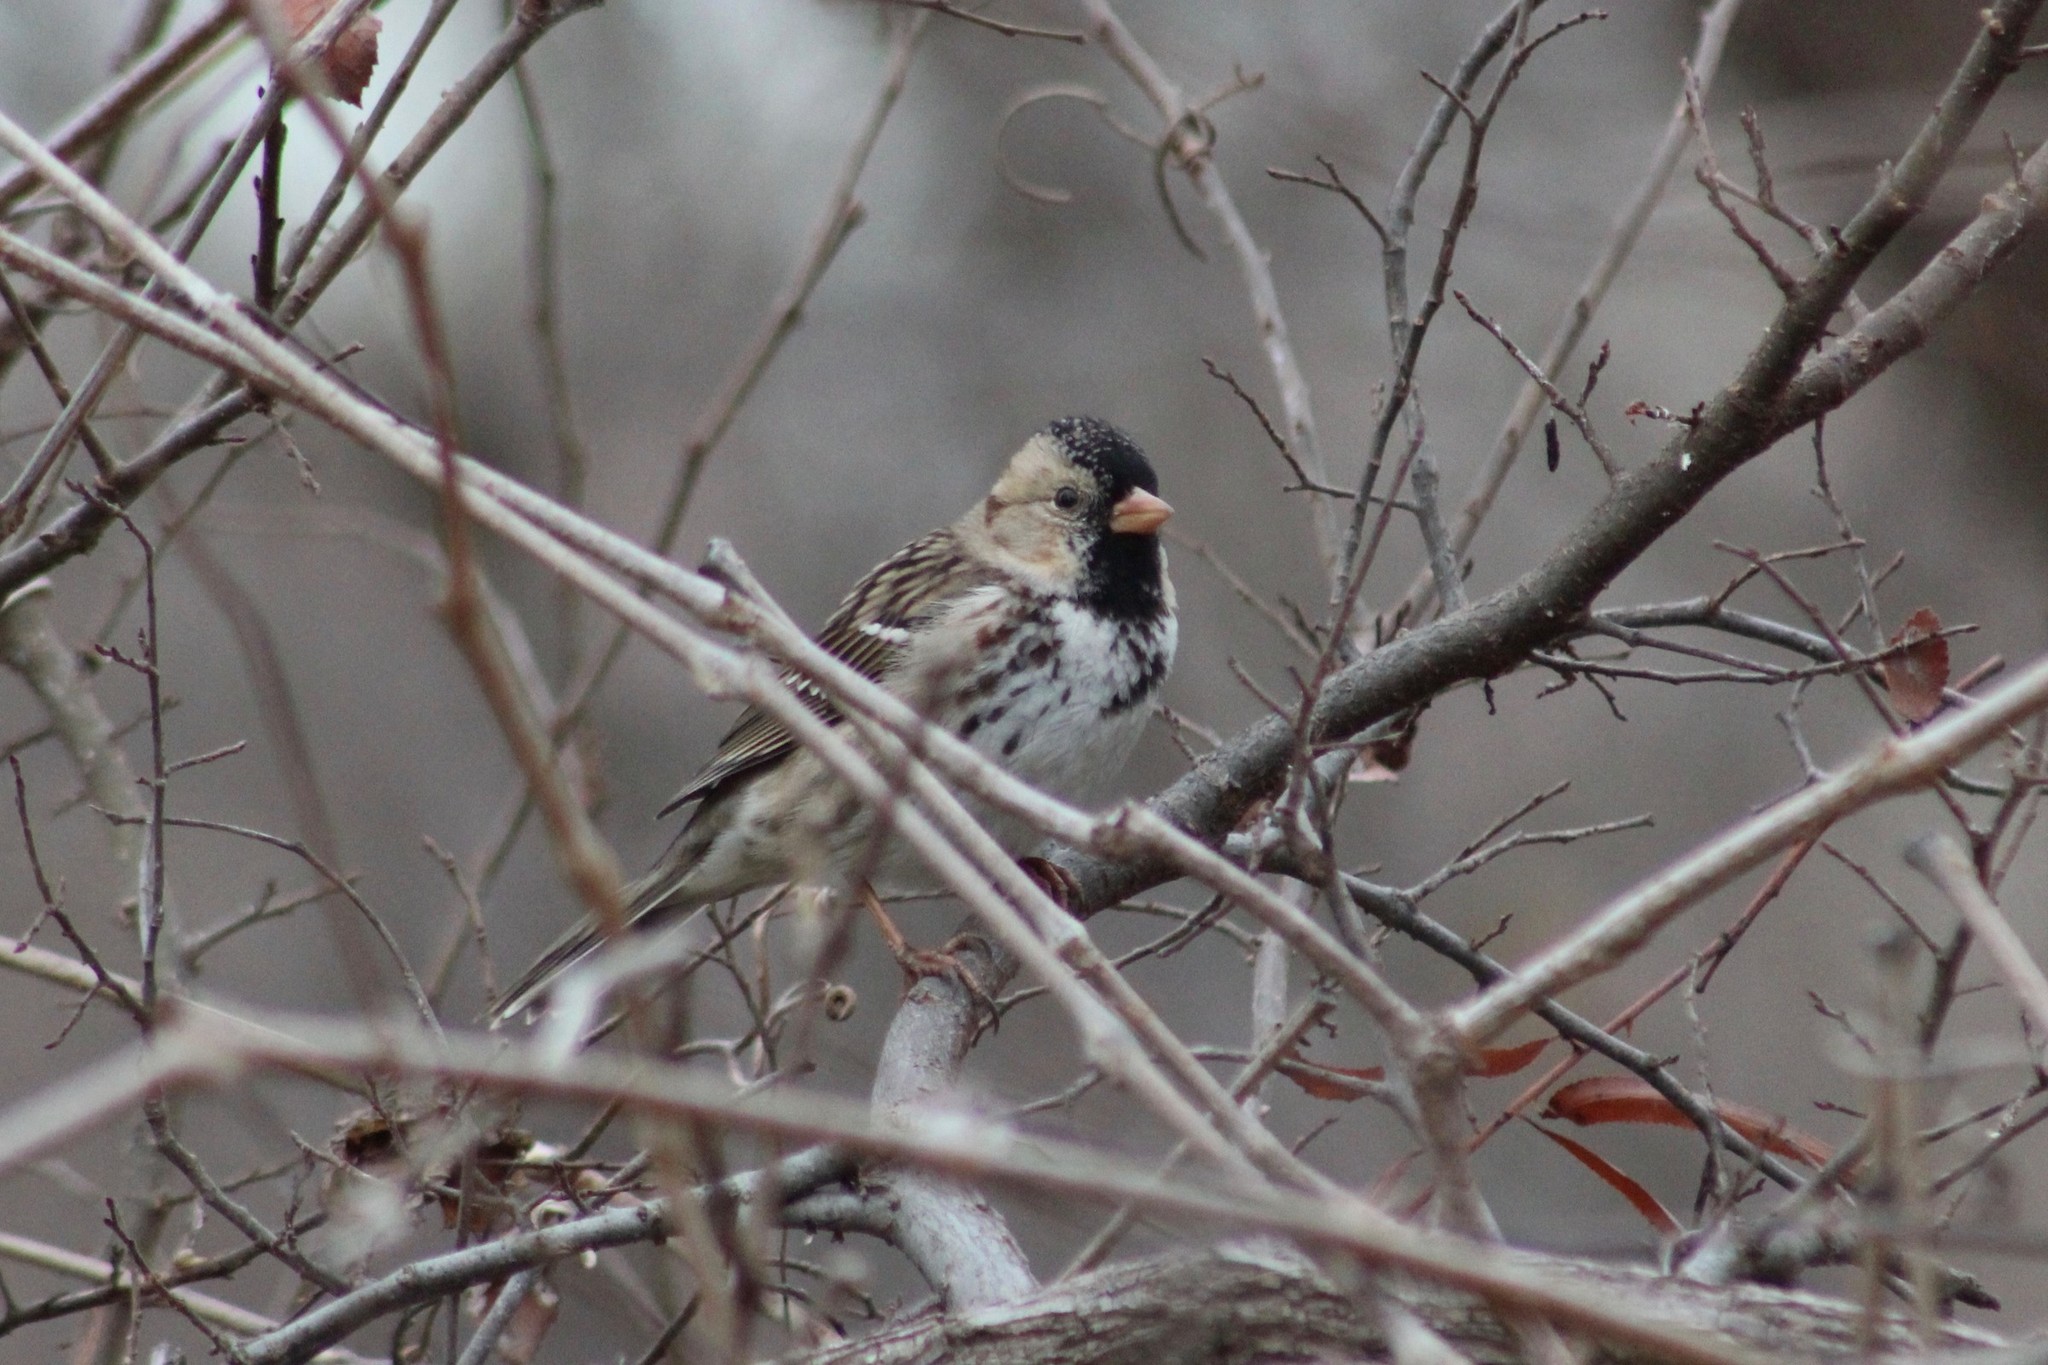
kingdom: Animalia
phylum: Chordata
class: Aves
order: Passeriformes
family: Passerellidae
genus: Zonotrichia
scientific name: Zonotrichia querula
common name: Harris's sparrow
